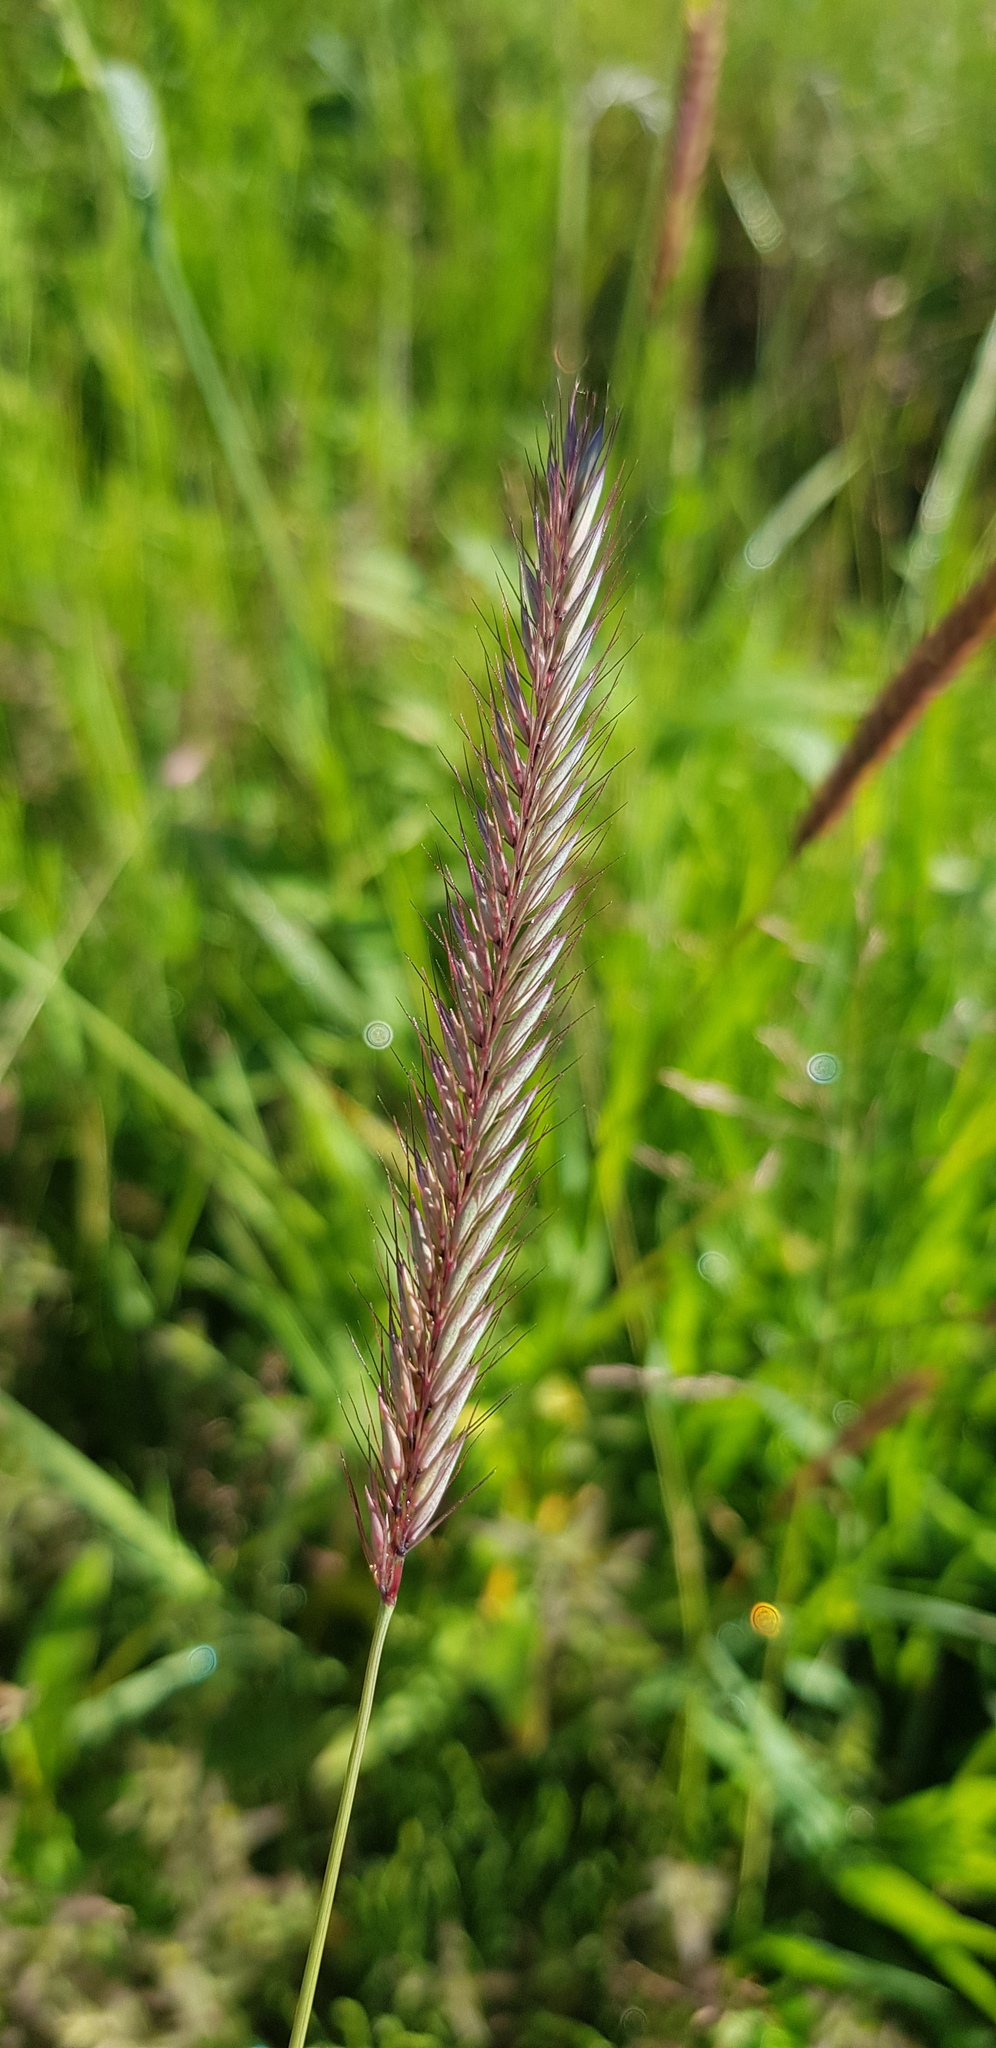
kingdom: Plantae
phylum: Tracheophyta
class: Liliopsida
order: Poales
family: Poaceae
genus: Hordeum
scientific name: Hordeum brevisubulatum
